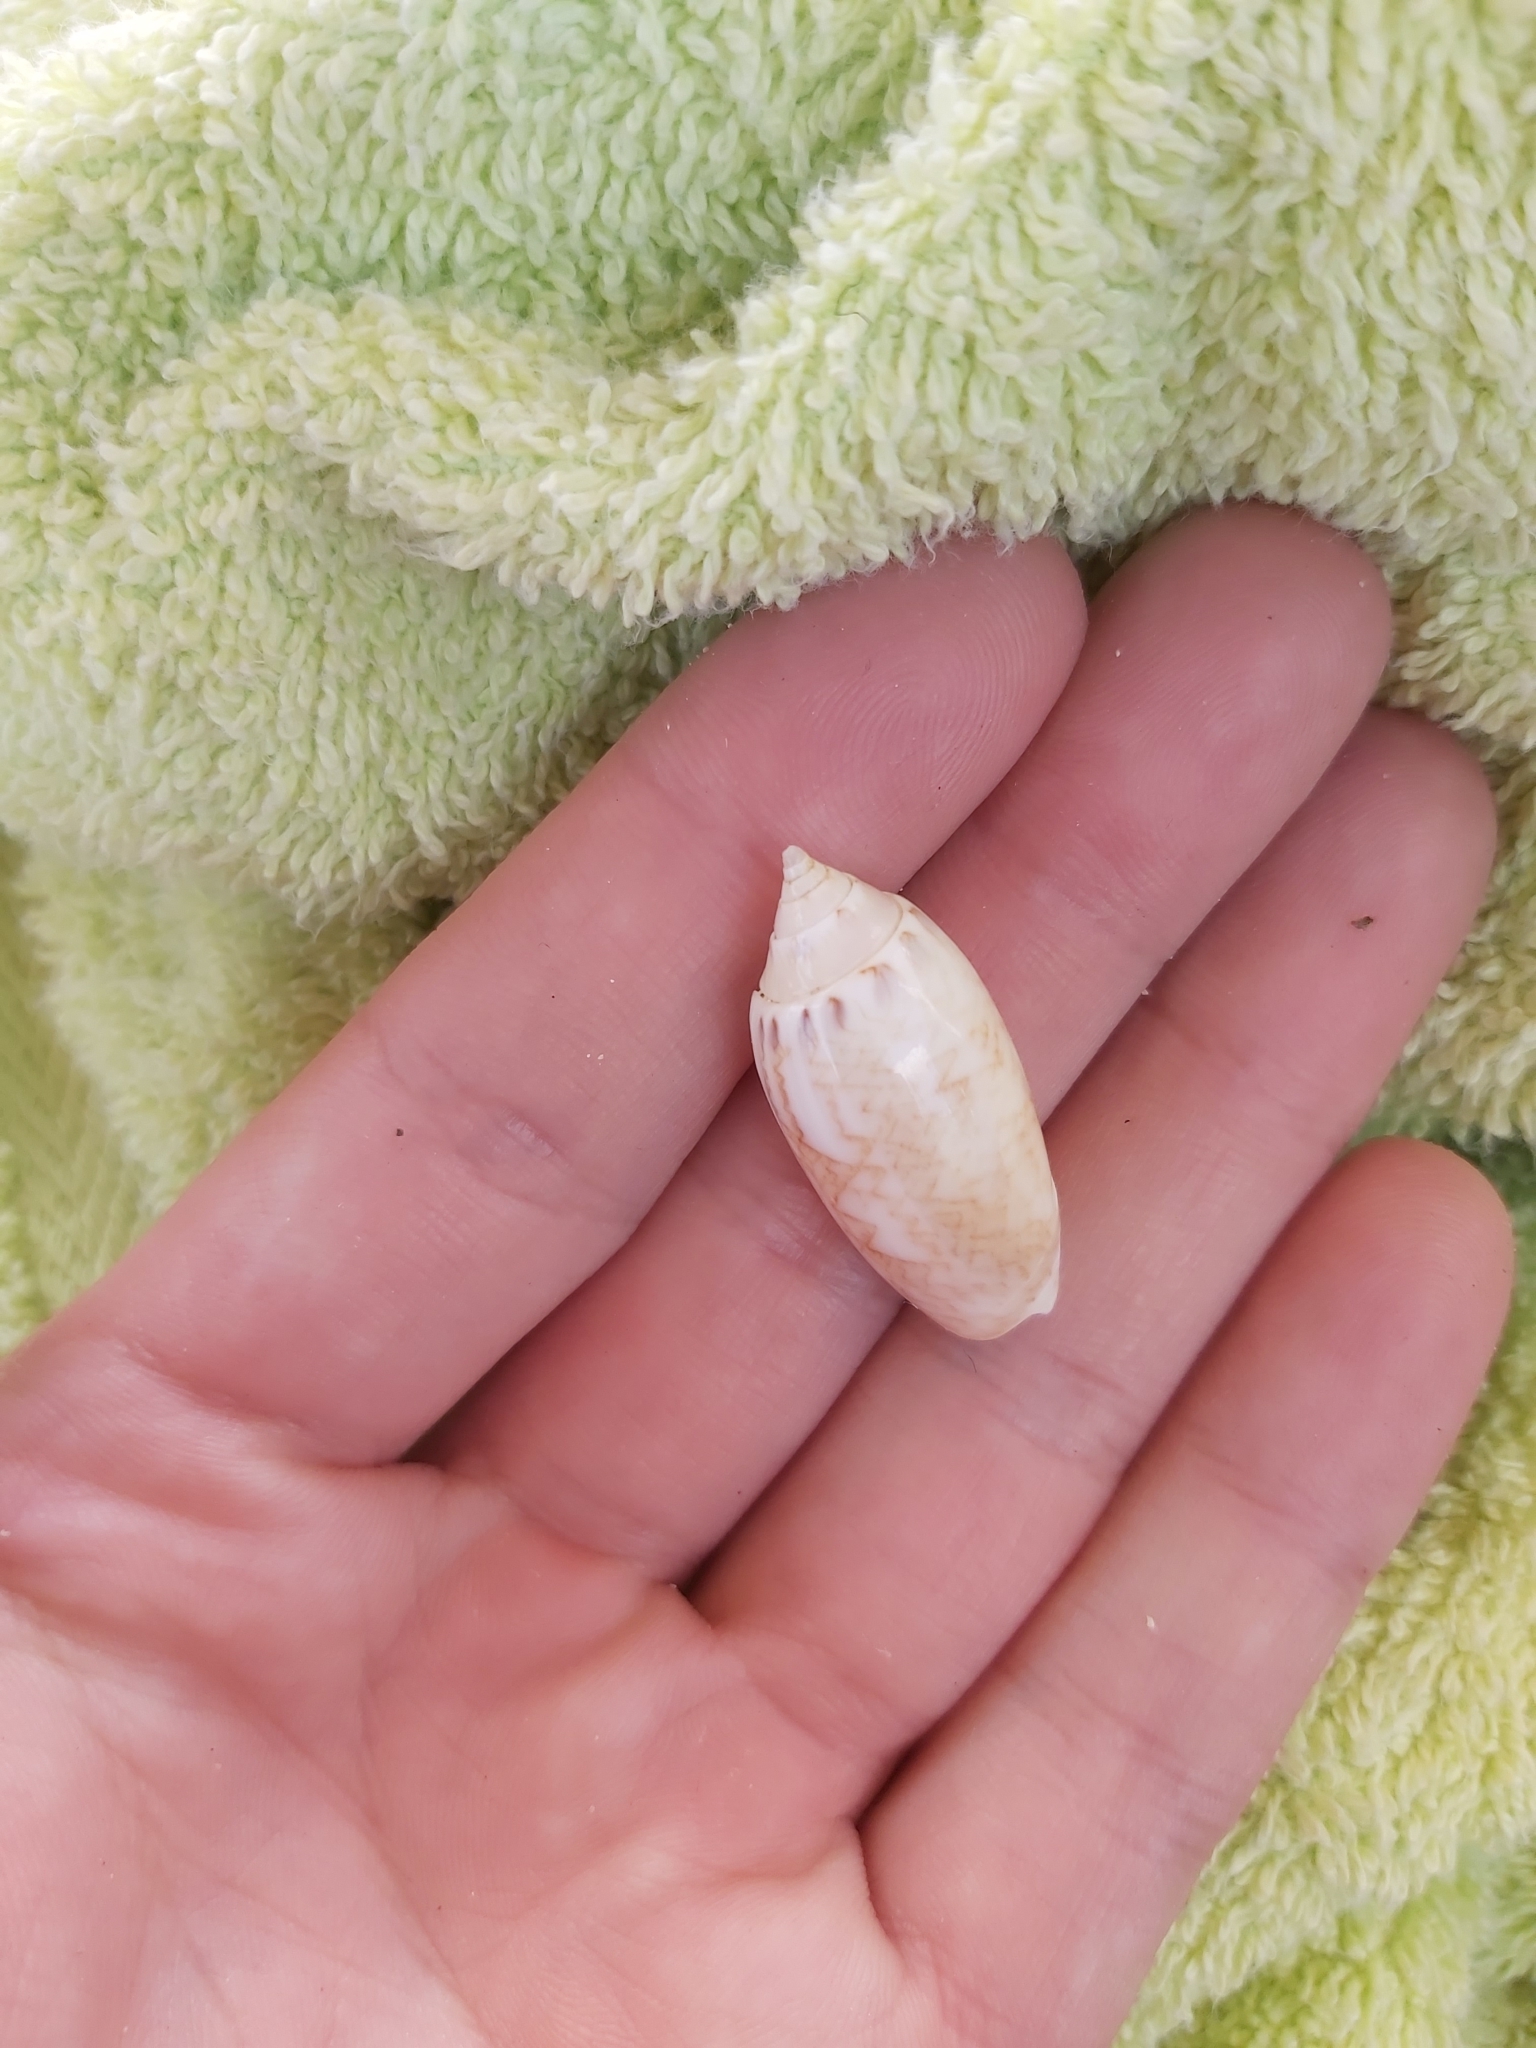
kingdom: Animalia
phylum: Mollusca
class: Gastropoda
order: Neogastropoda
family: Olividae
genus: Oliva
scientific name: Oliva reticularis
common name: Netted olive
